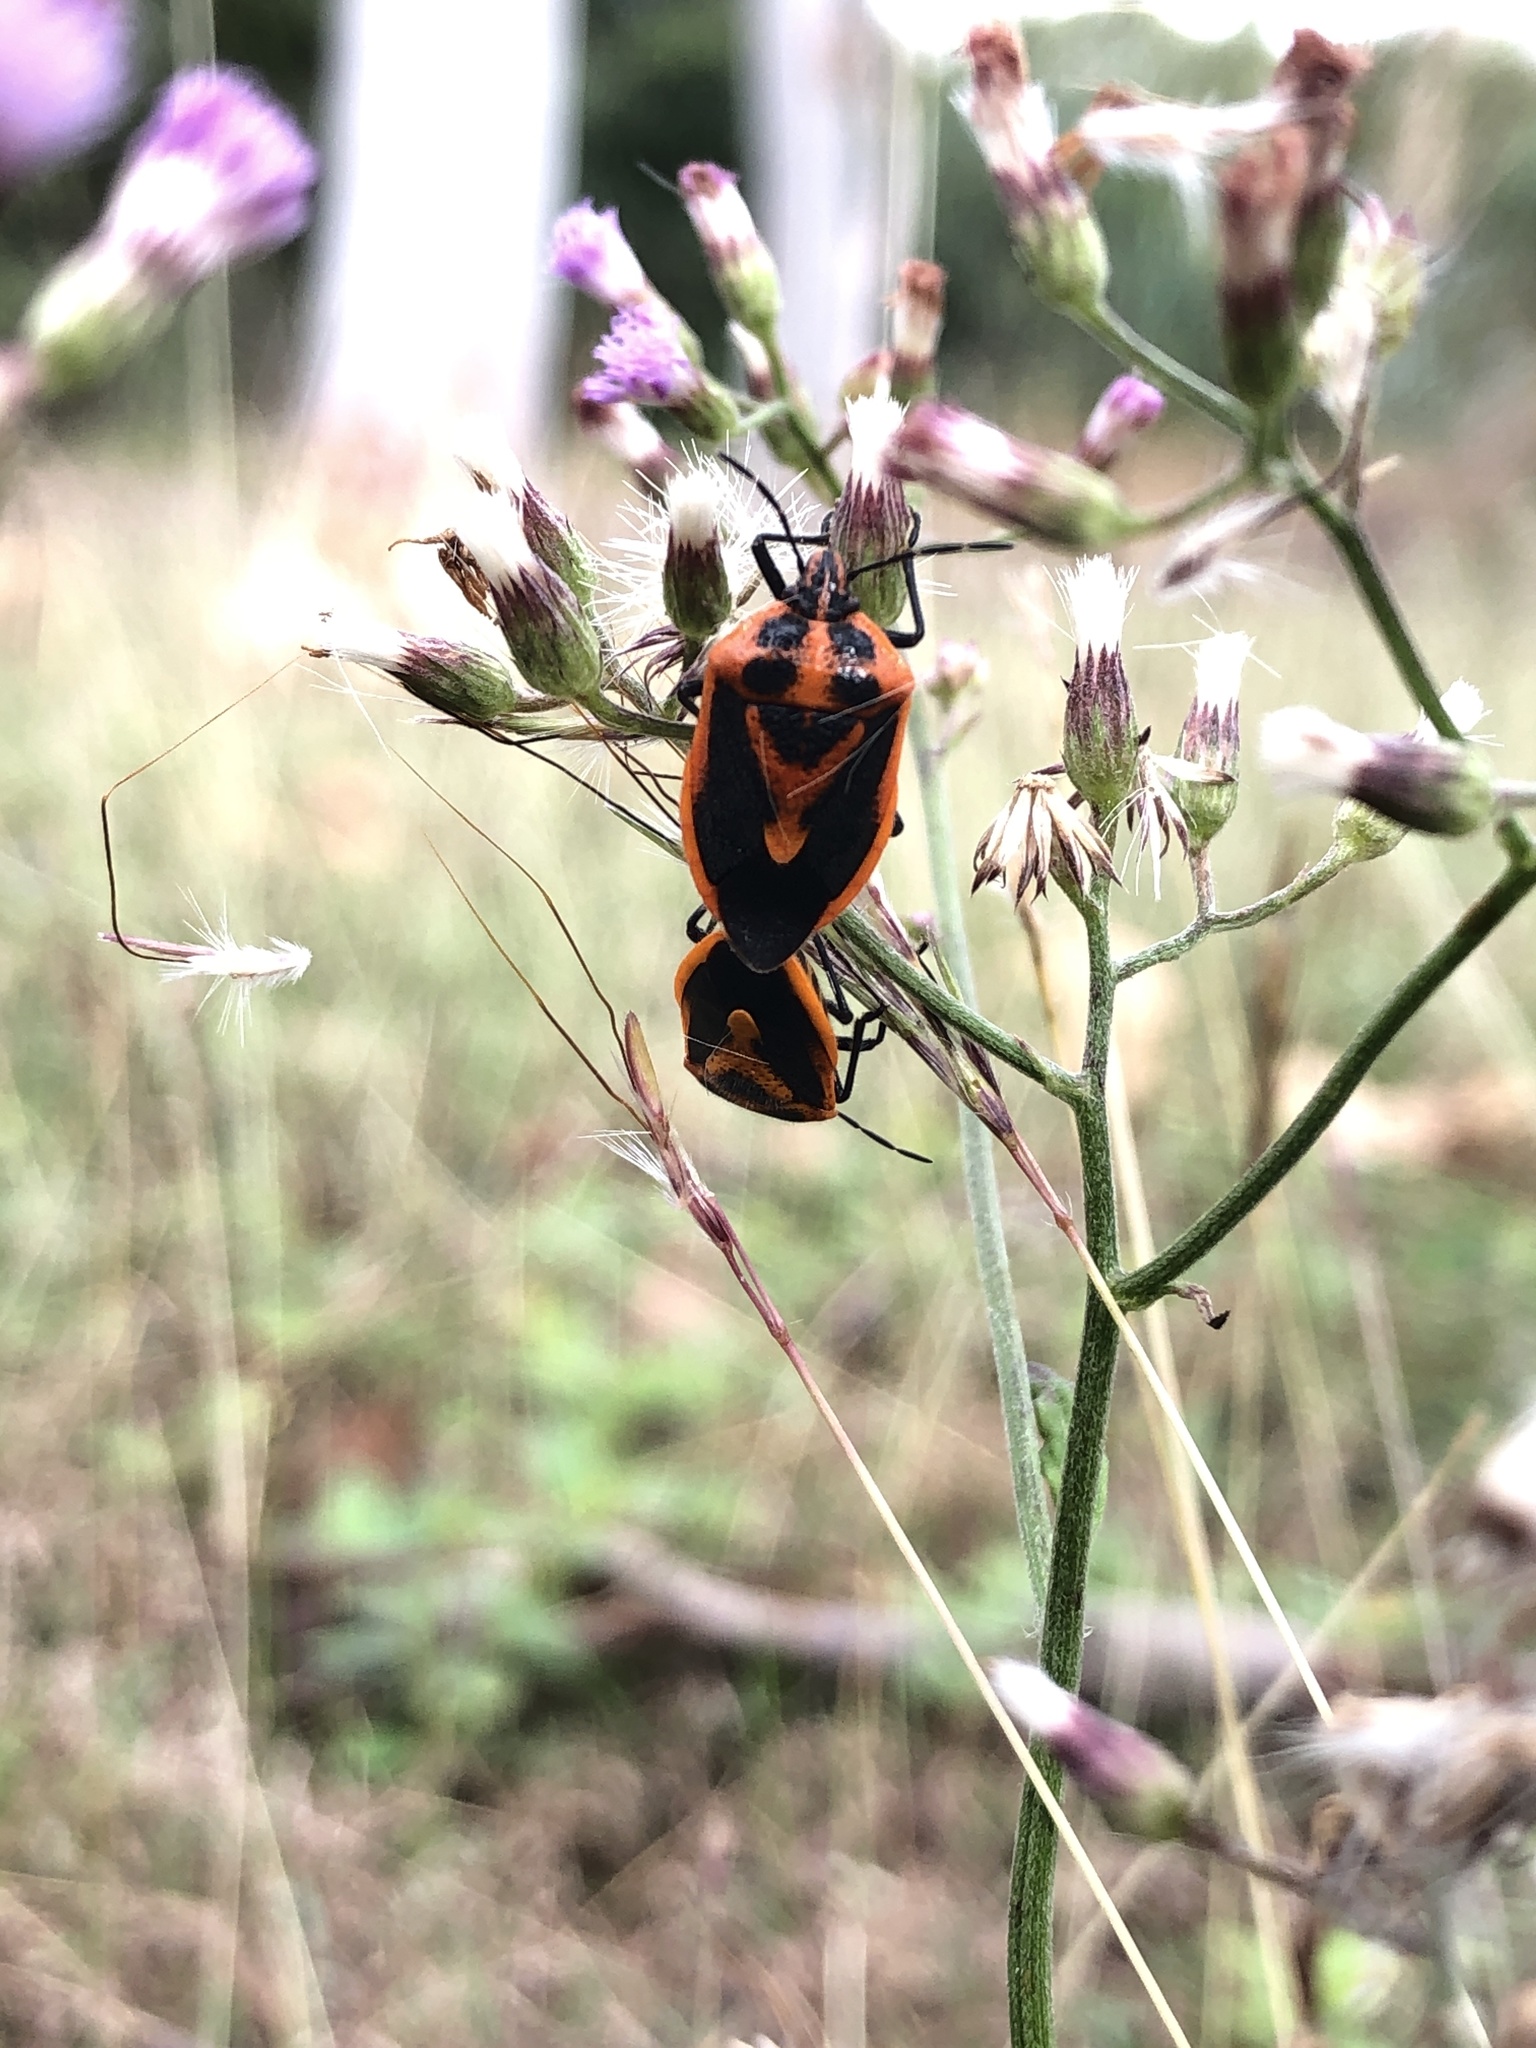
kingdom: Animalia
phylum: Arthropoda
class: Insecta
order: Hemiptera
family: Pentatomidae
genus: Agonoscelis
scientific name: Agonoscelis rutila
